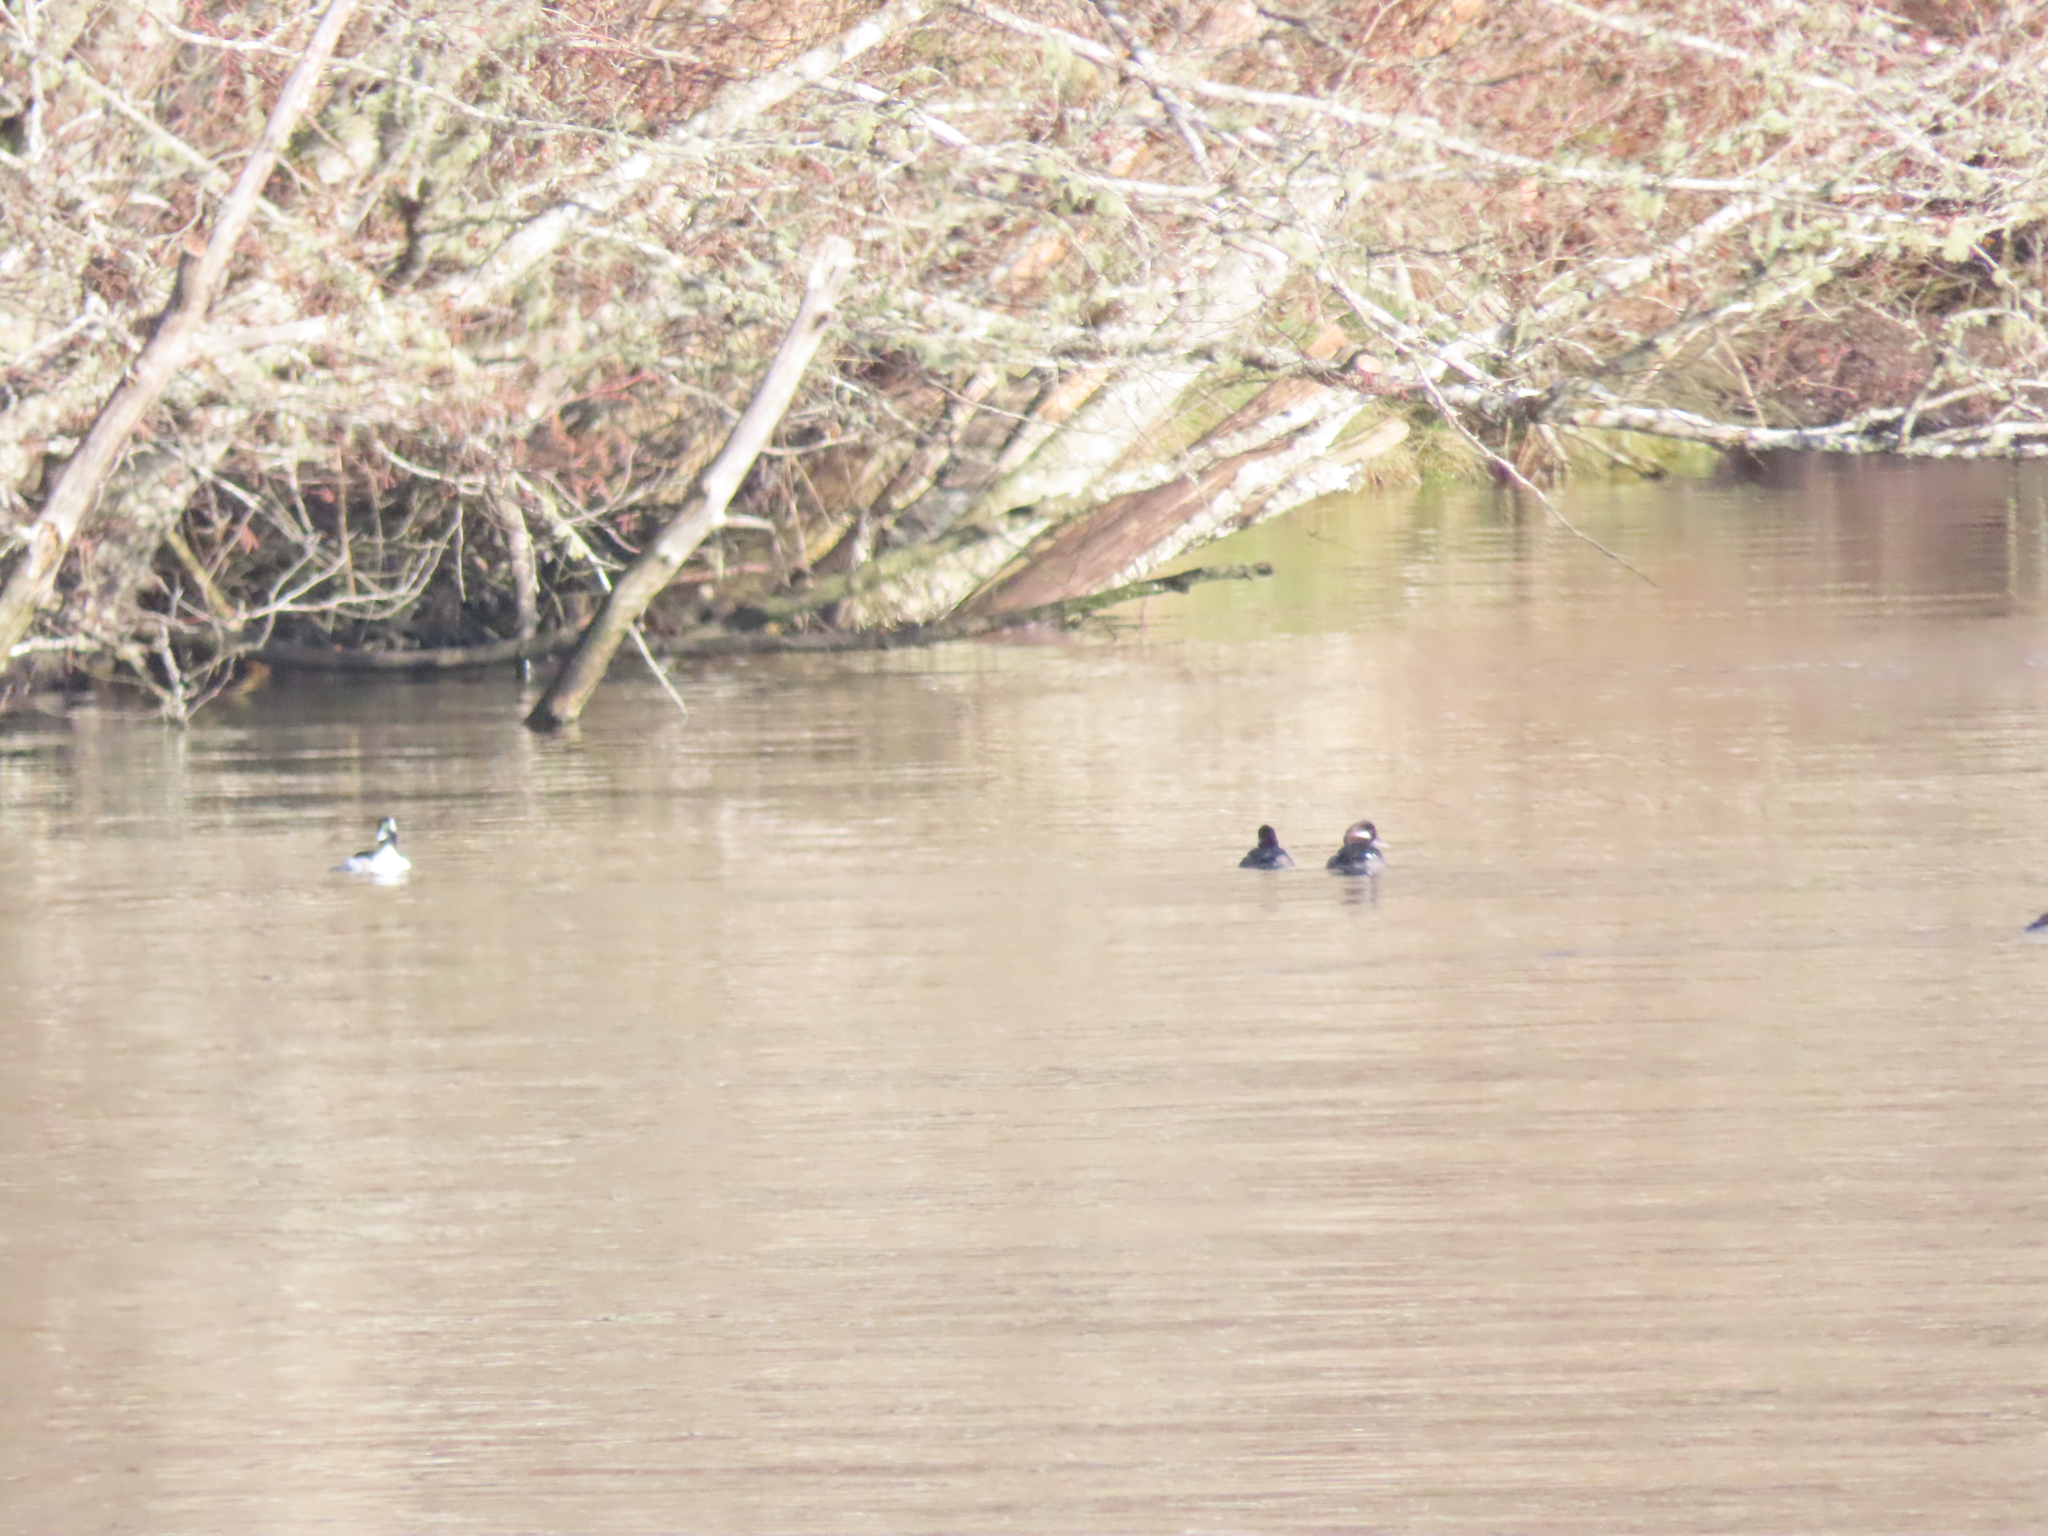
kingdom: Animalia
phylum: Chordata
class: Aves
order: Anseriformes
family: Anatidae
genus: Bucephala
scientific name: Bucephala albeola
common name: Bufflehead
